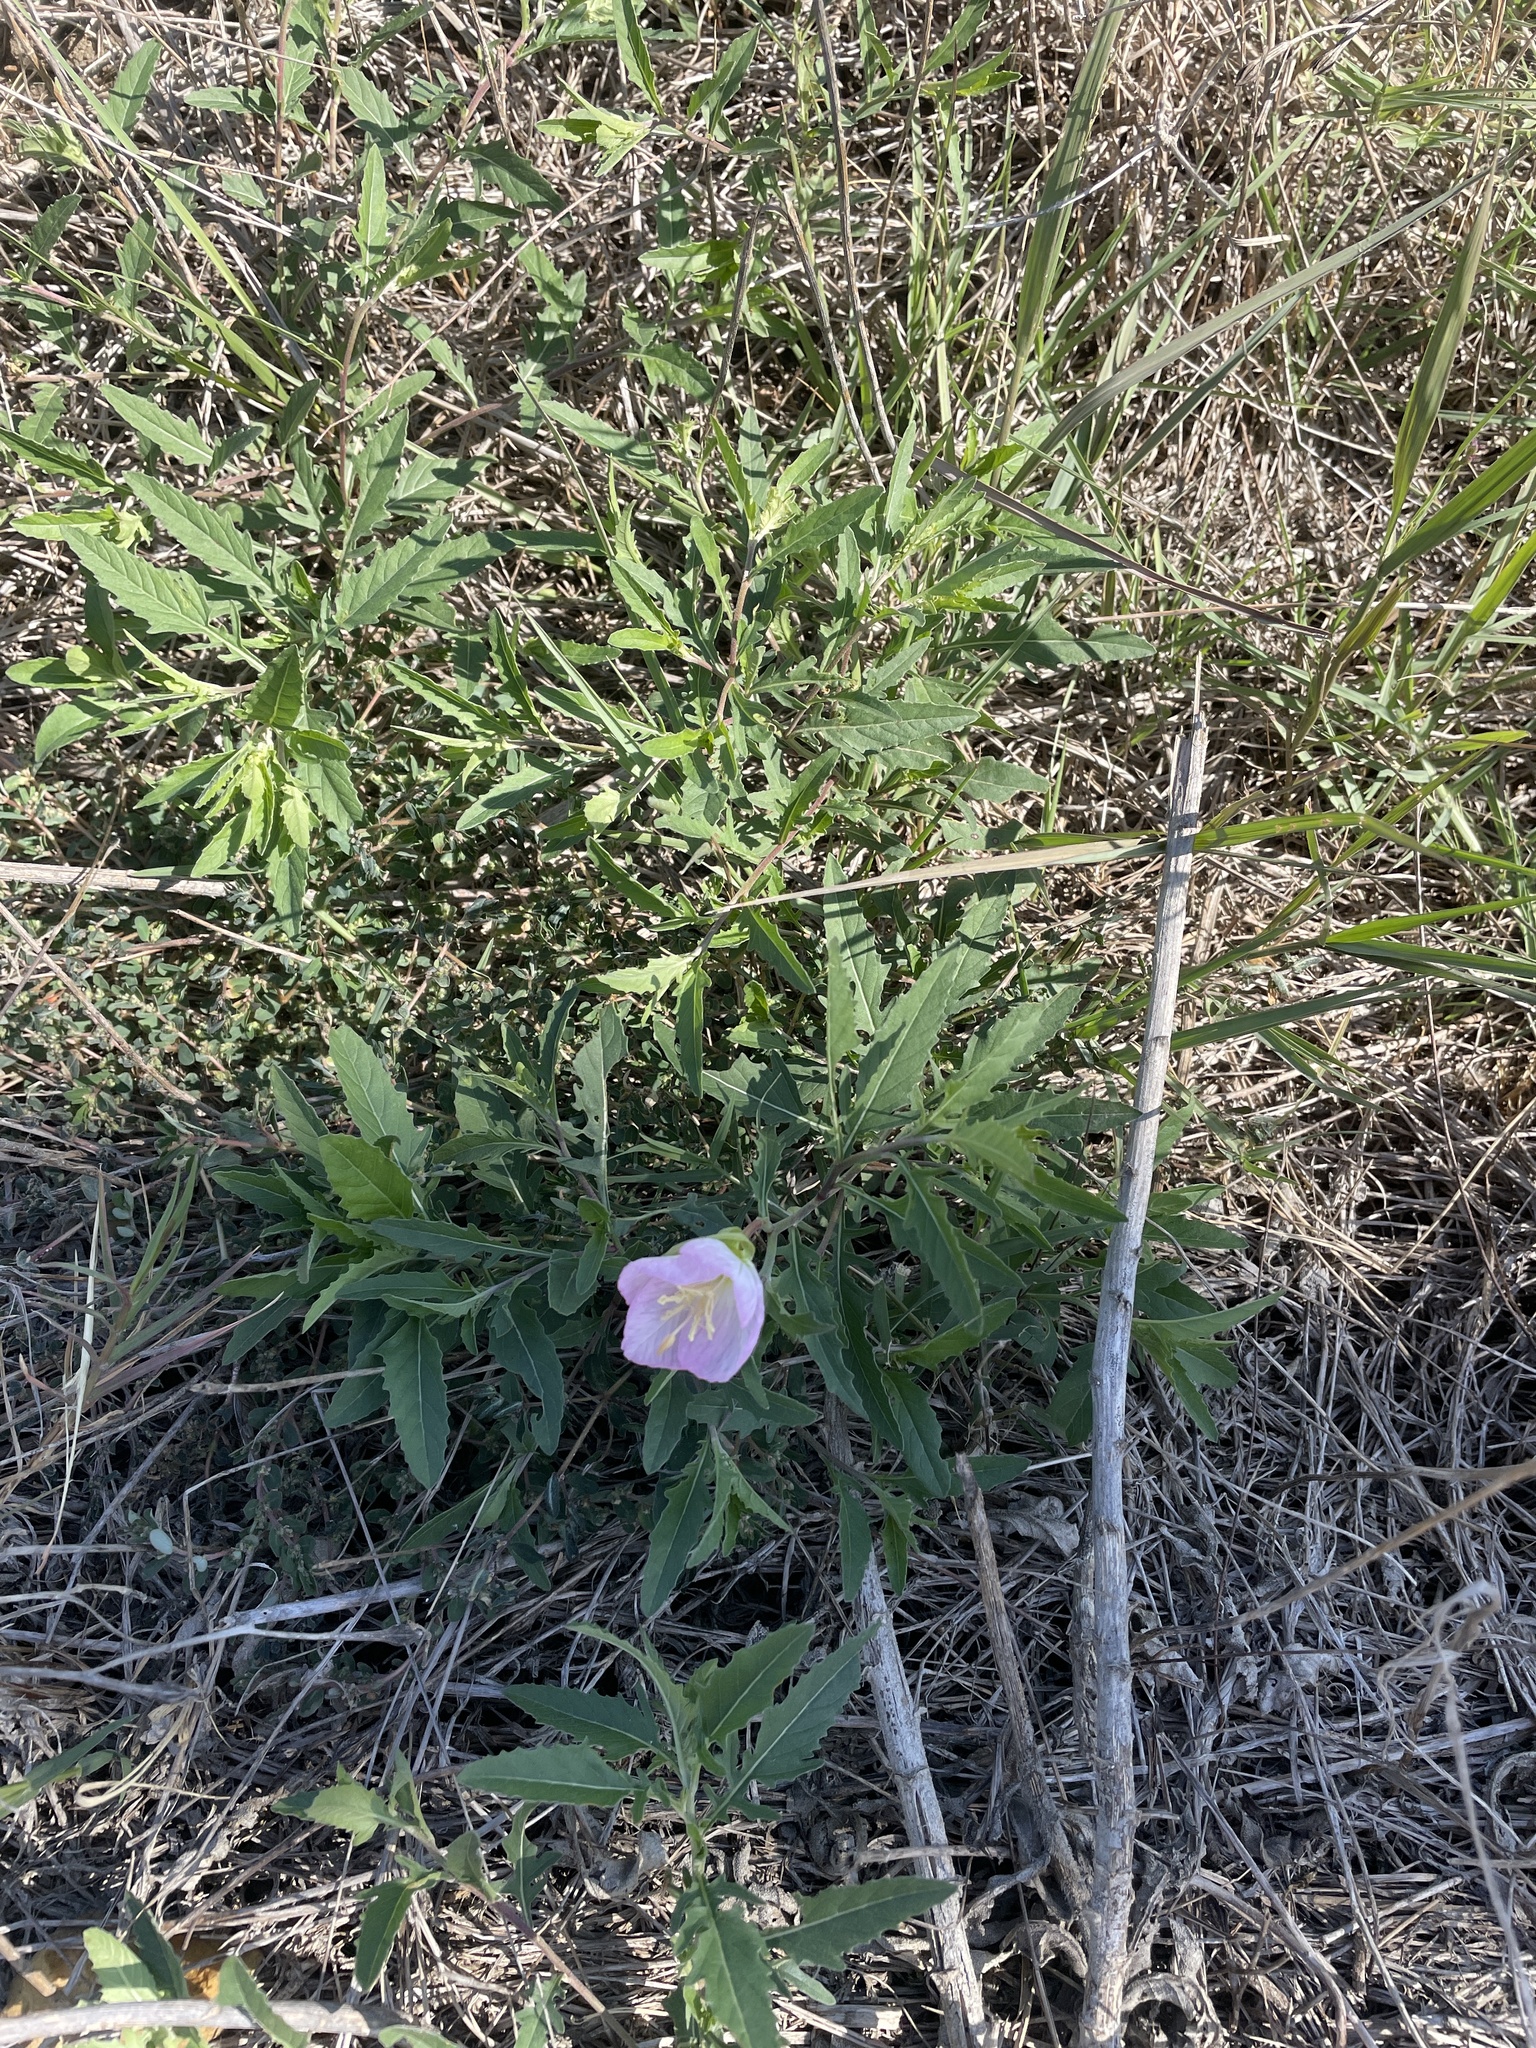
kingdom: Plantae
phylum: Tracheophyta
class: Magnoliopsida
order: Myrtales
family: Onagraceae
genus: Oenothera
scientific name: Oenothera speciosa
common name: White evening-primrose
